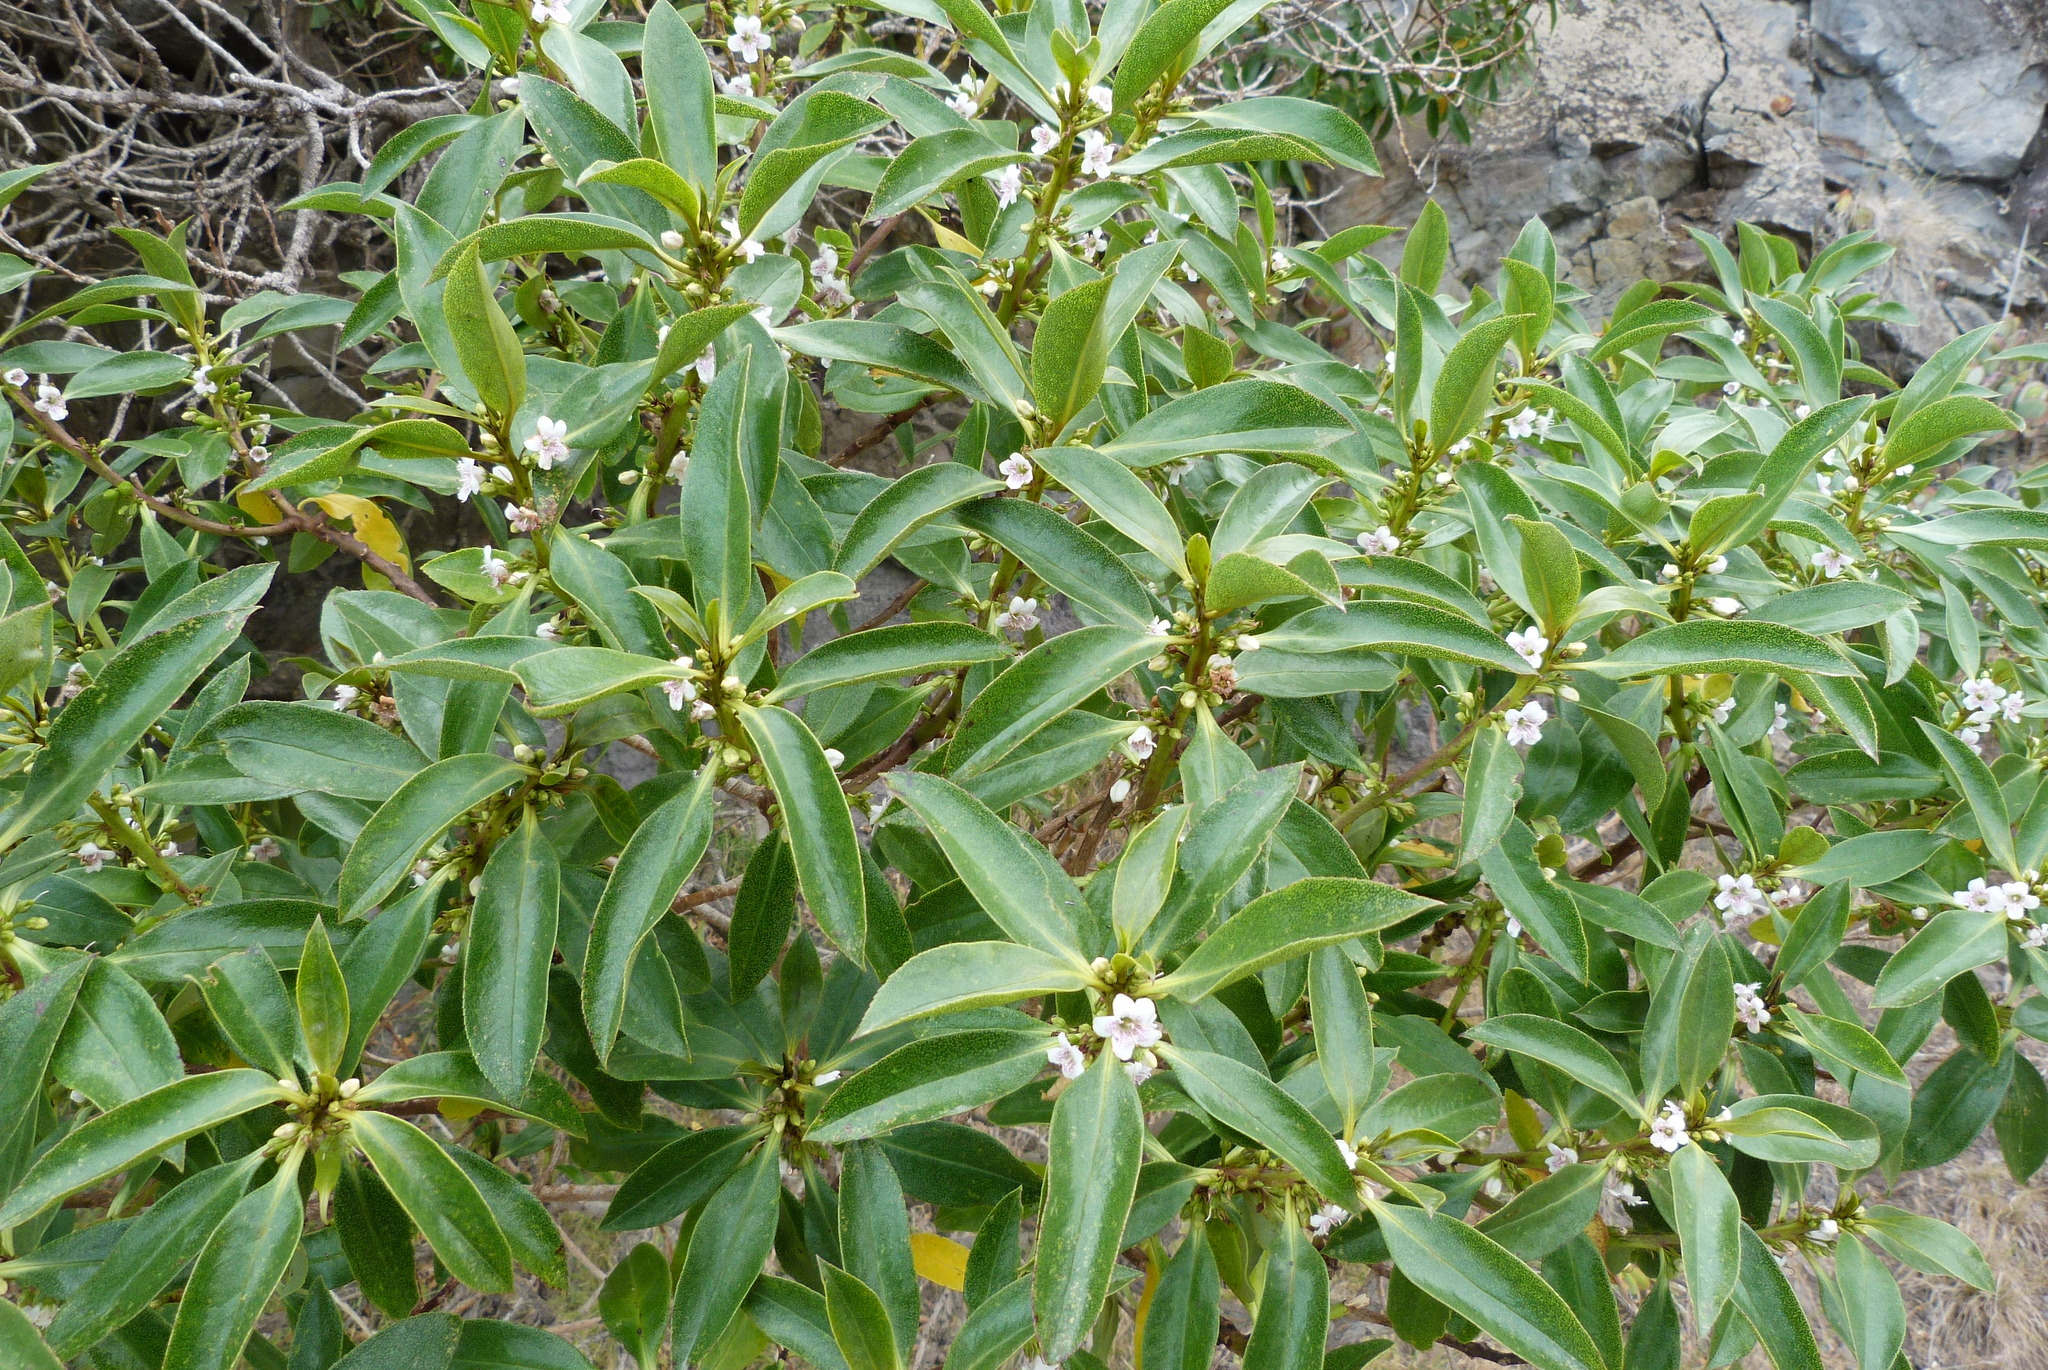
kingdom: Plantae
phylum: Tracheophyta
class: Magnoliopsida
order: Lamiales
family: Scrophulariaceae
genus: Myoporum
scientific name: Myoporum laetum
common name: Ngaio tree
